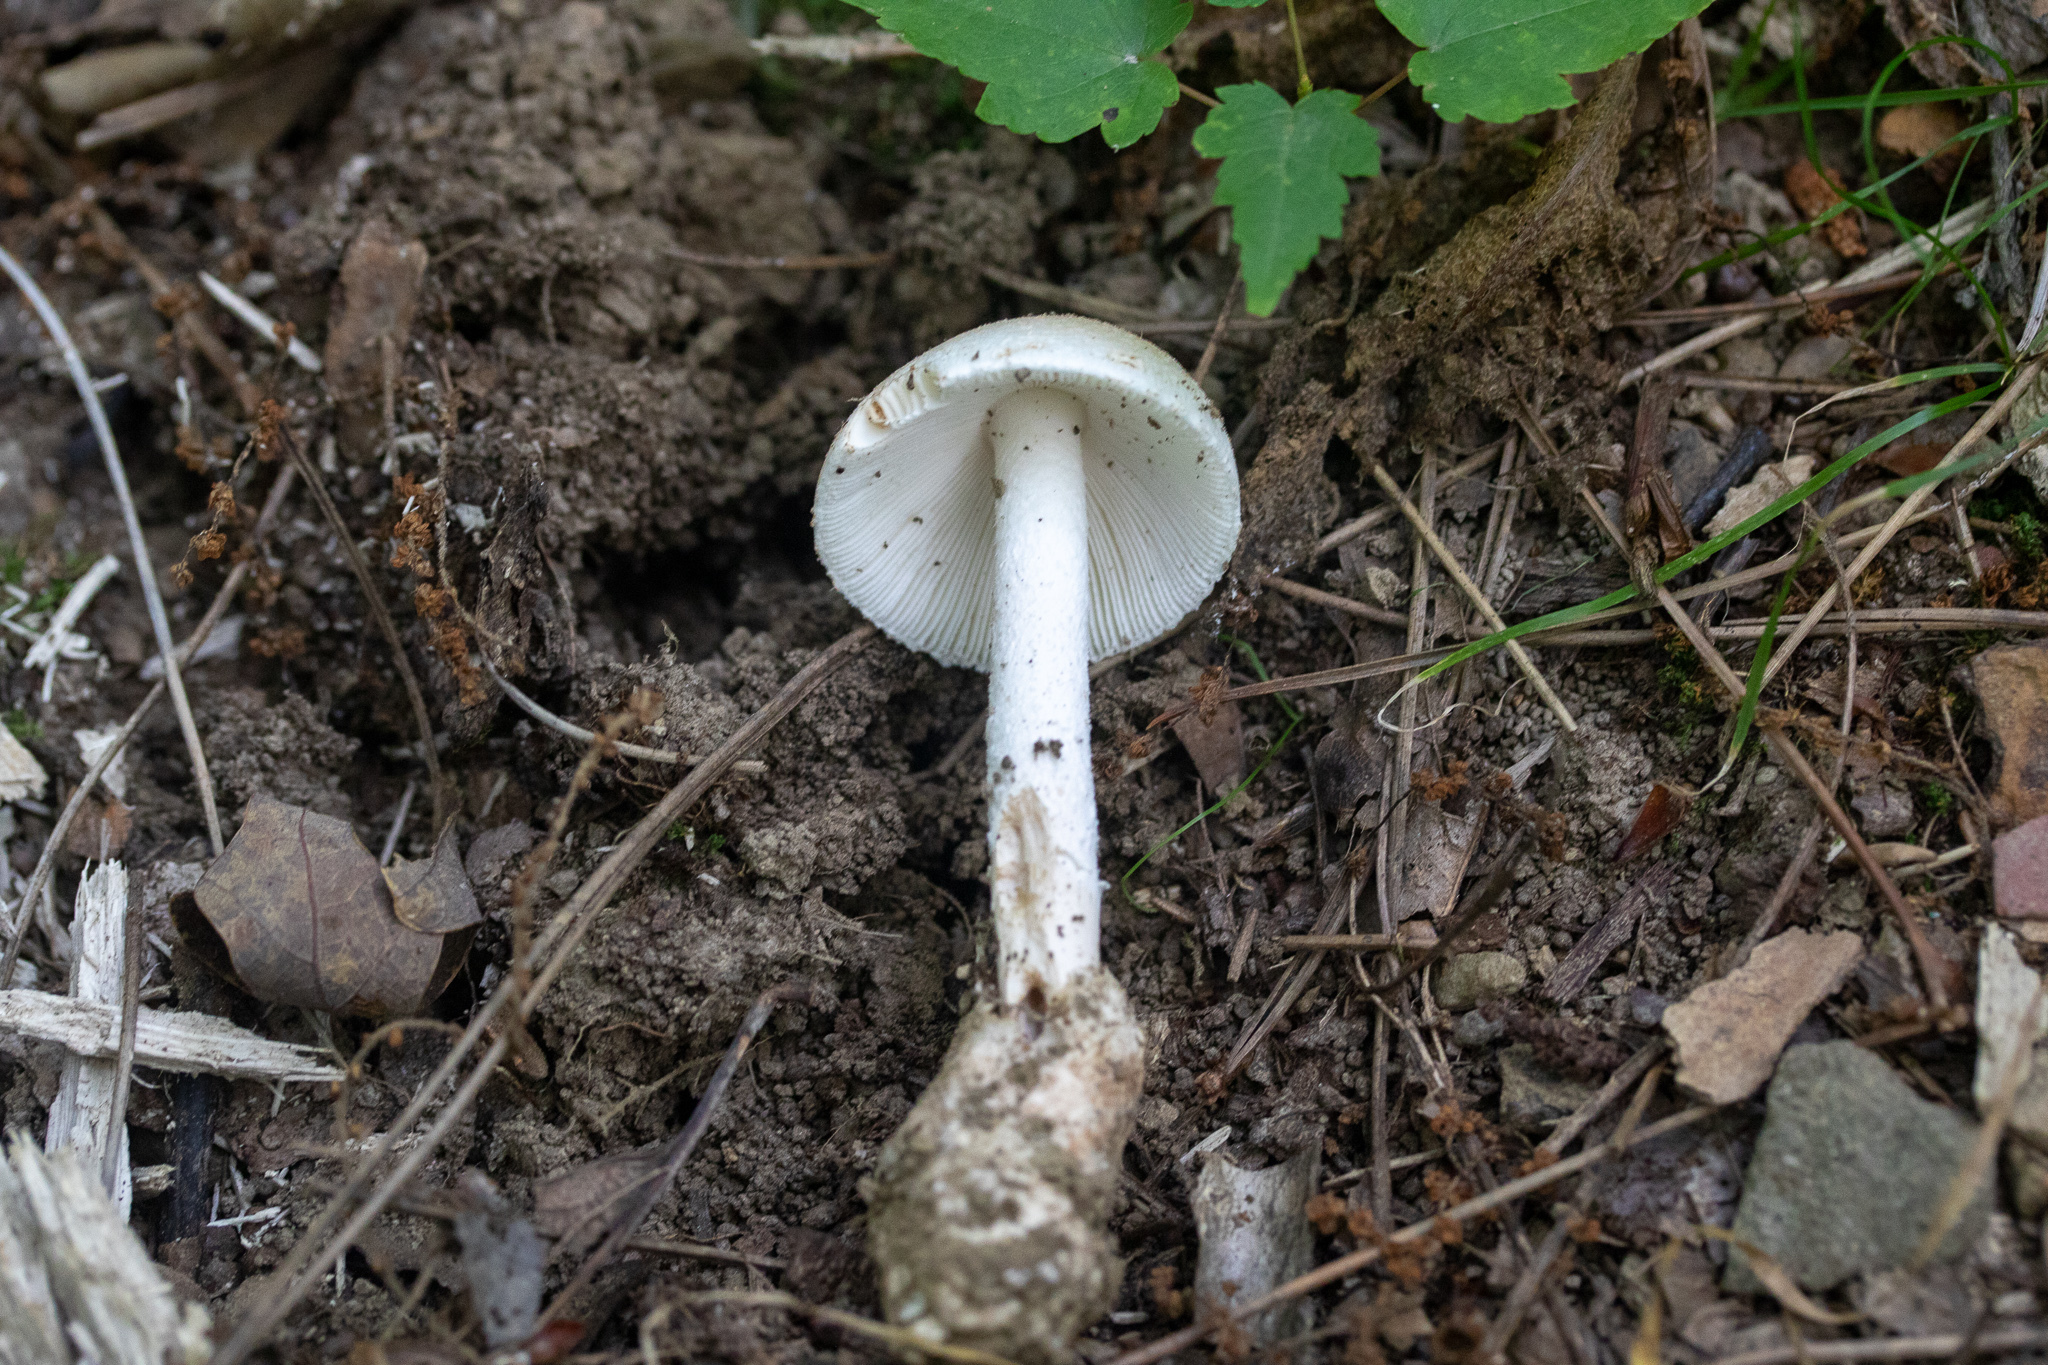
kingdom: Fungi
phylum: Basidiomycota
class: Agaricomycetes
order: Agaricales
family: Amanitaceae
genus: Amanita
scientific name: Amanita bisporigera
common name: Eastern north american destroying angel
